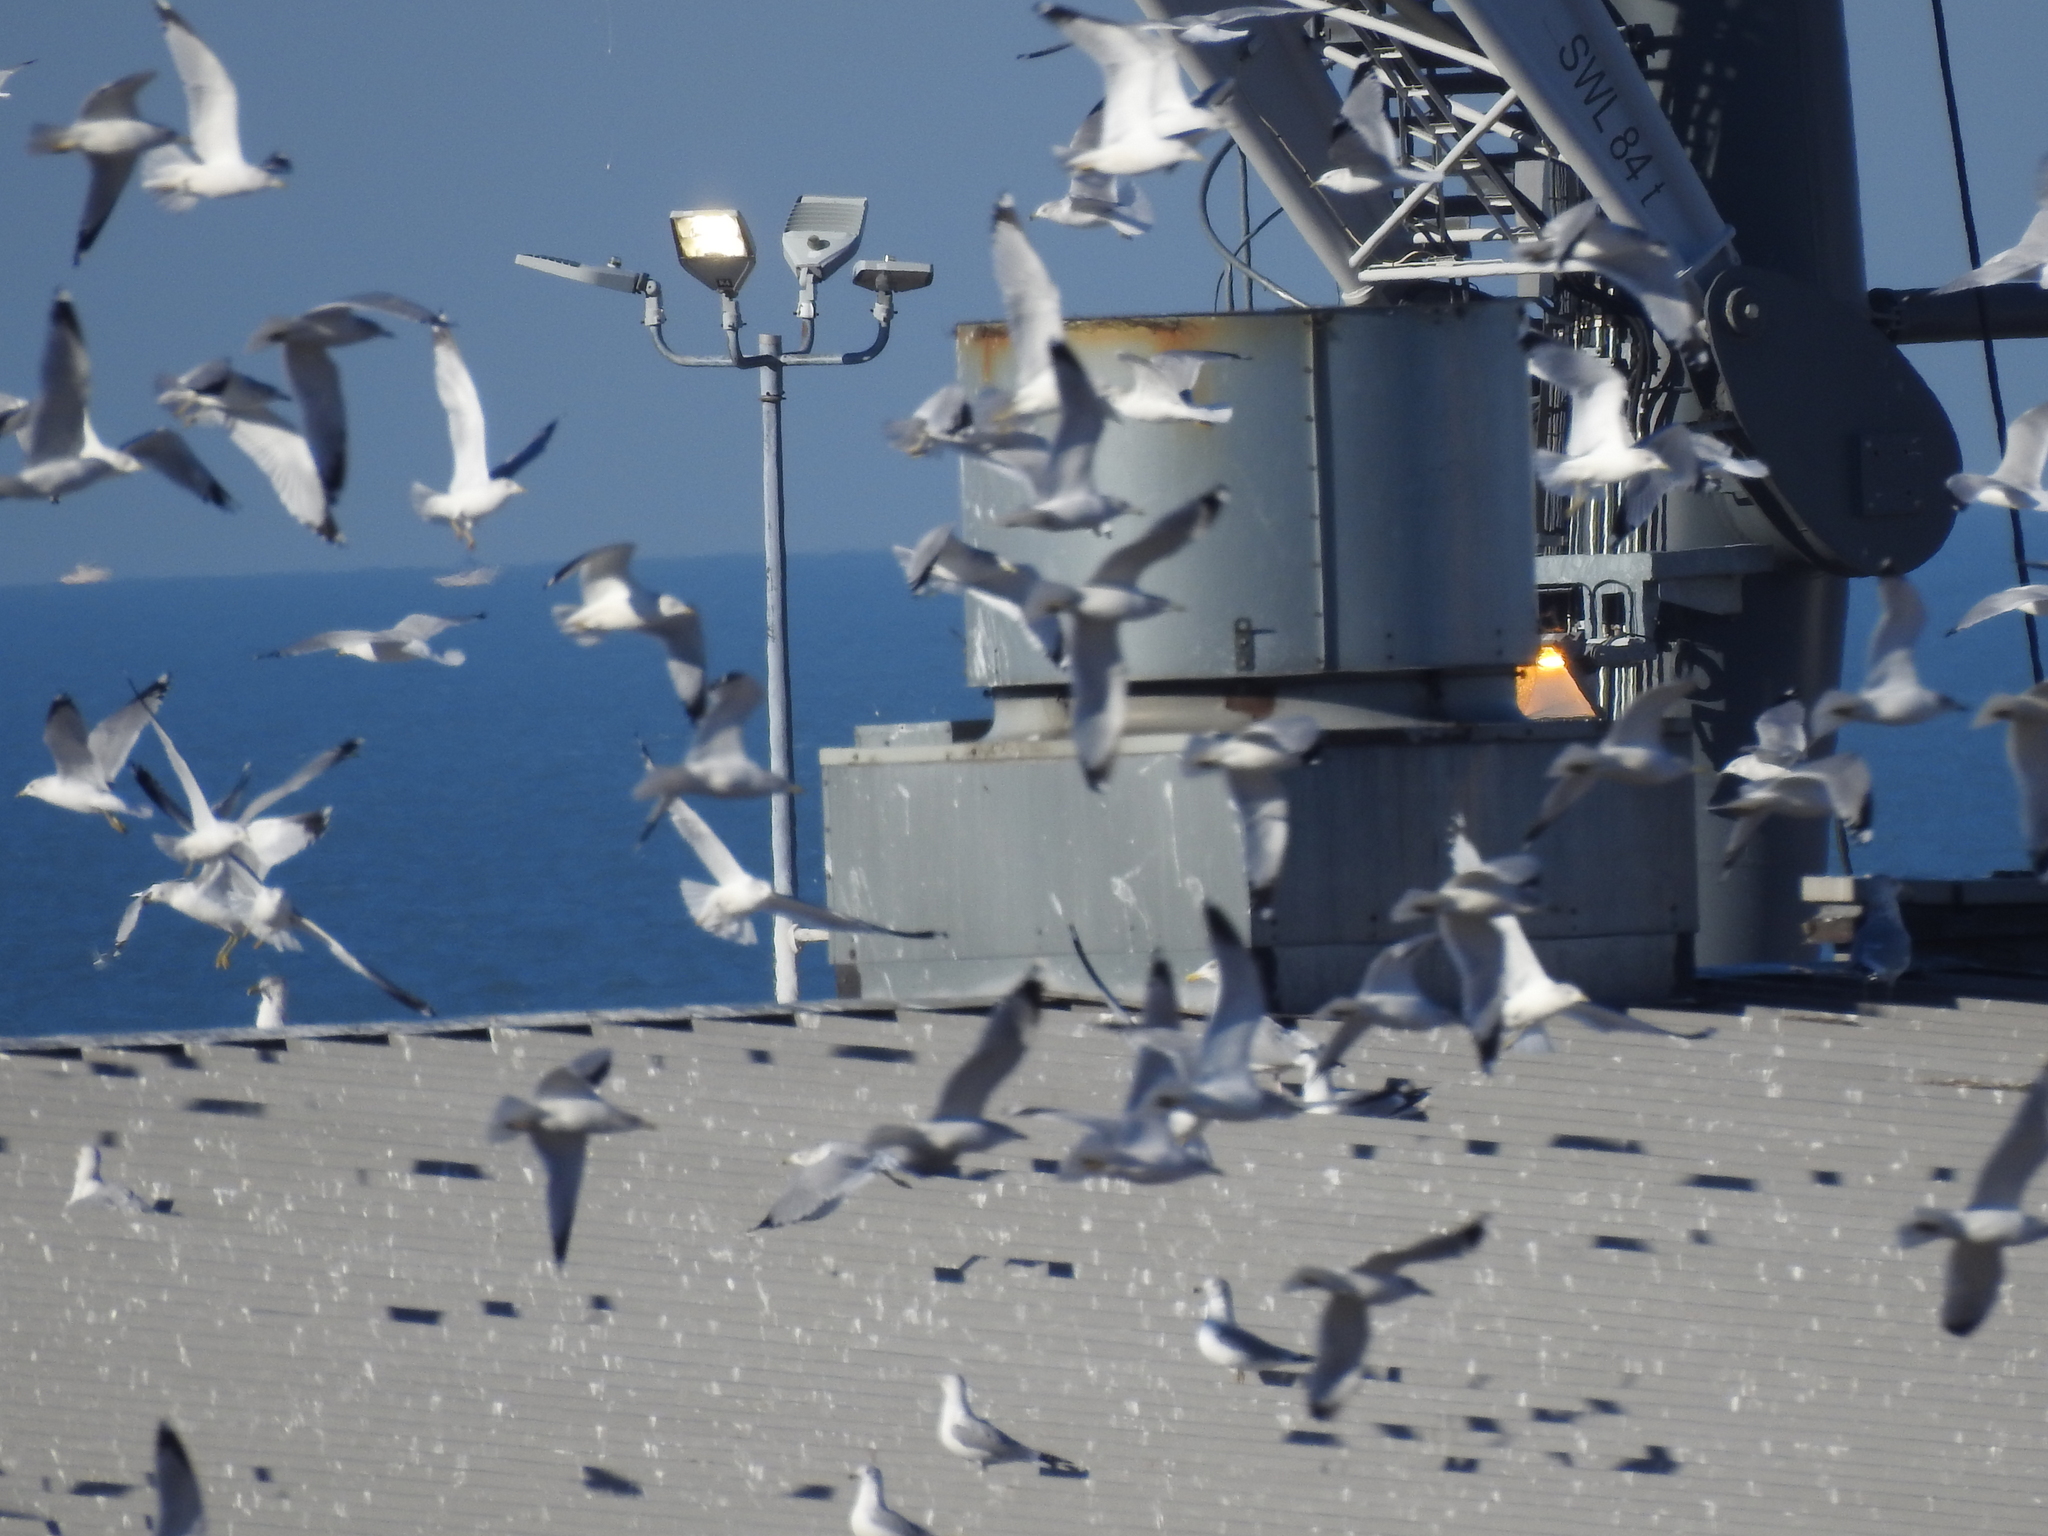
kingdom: Animalia
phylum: Chordata
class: Aves
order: Charadriiformes
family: Laridae
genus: Larus
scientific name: Larus delawarensis
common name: Ring-billed gull
